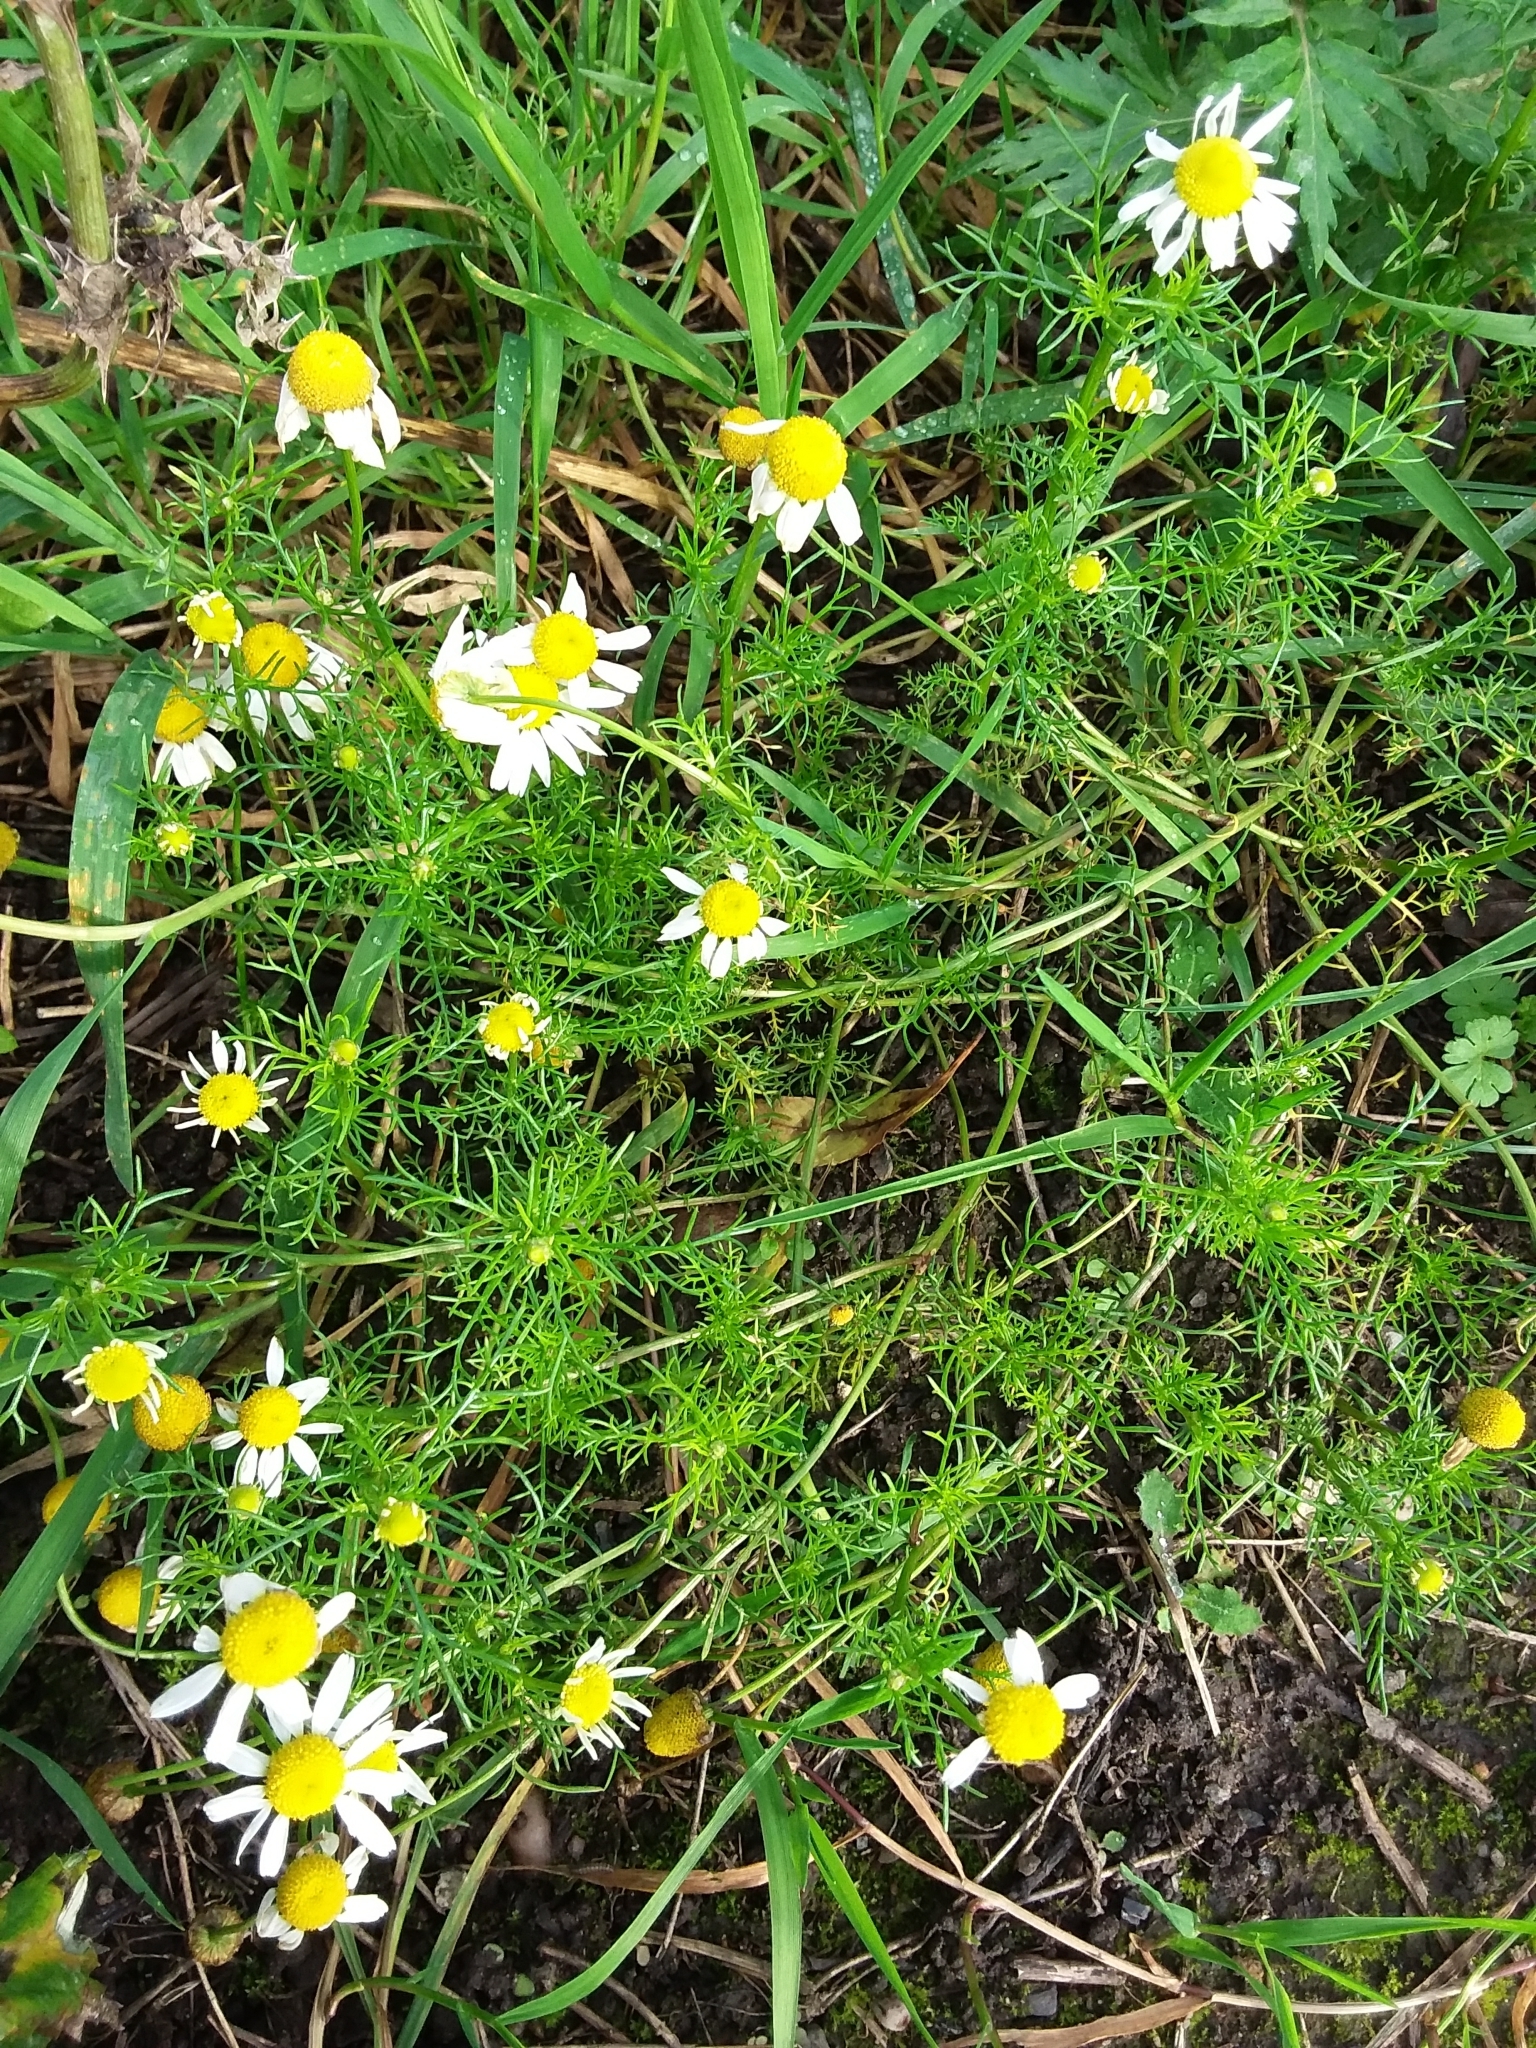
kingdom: Plantae
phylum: Tracheophyta
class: Magnoliopsida
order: Asterales
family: Asteraceae
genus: Tripleurospermum
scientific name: Tripleurospermum inodorum
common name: Scentless mayweed
